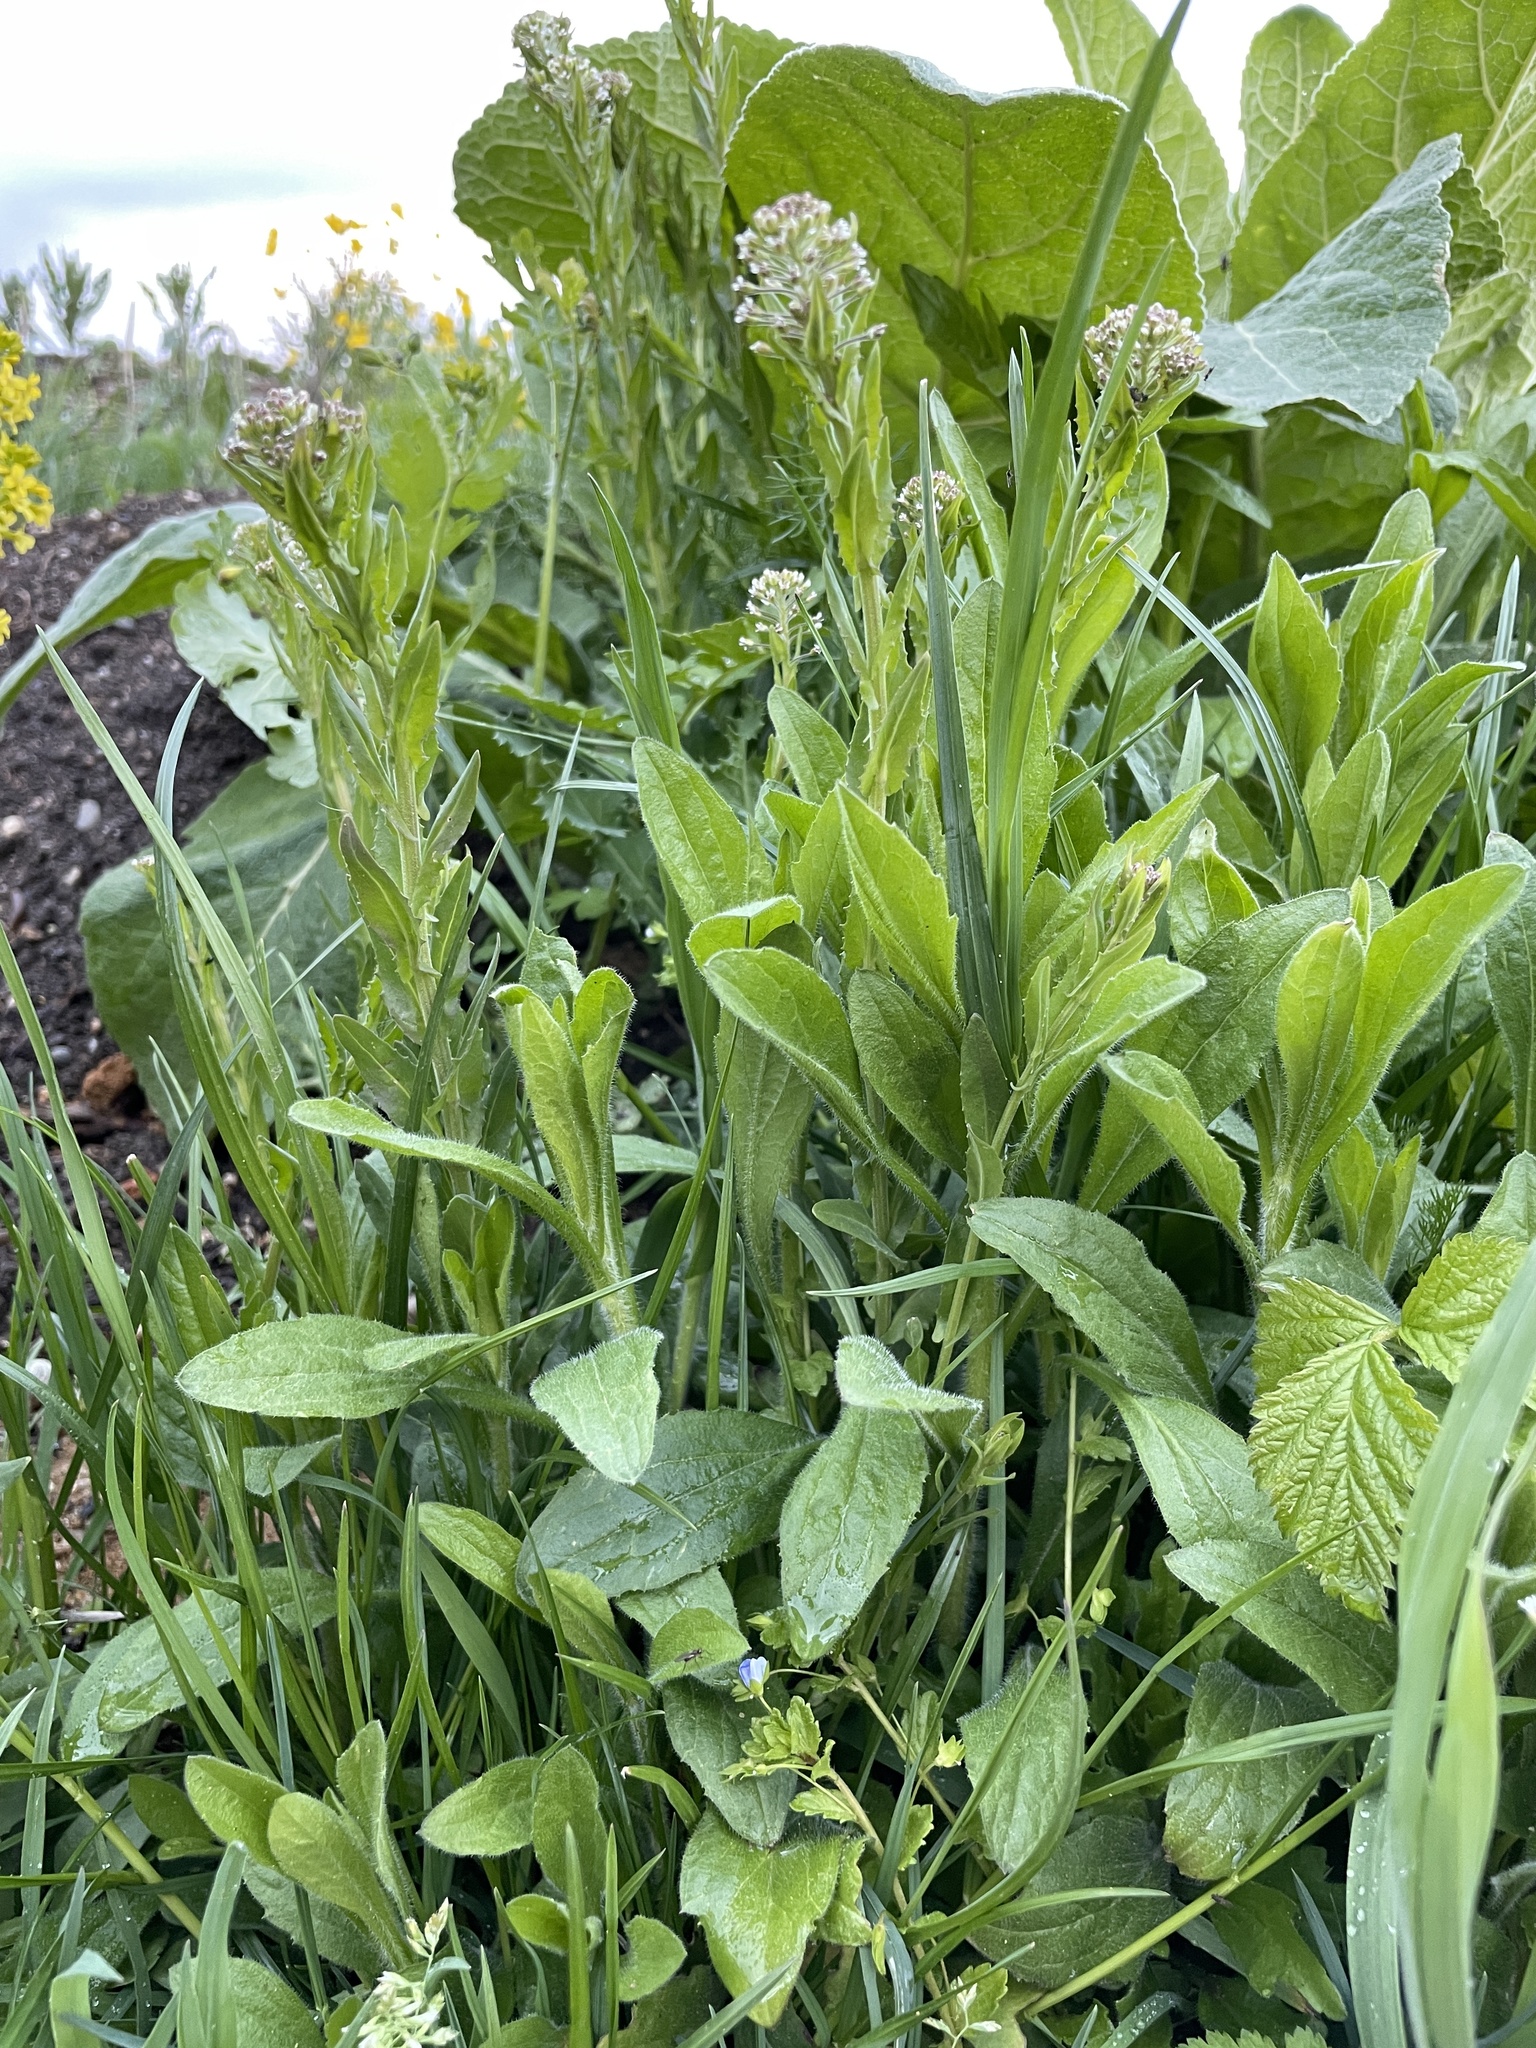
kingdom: Plantae
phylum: Tracheophyta
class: Magnoliopsida
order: Brassicales
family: Brassicaceae
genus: Lepidium
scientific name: Lepidium draba
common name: Hoary cress
